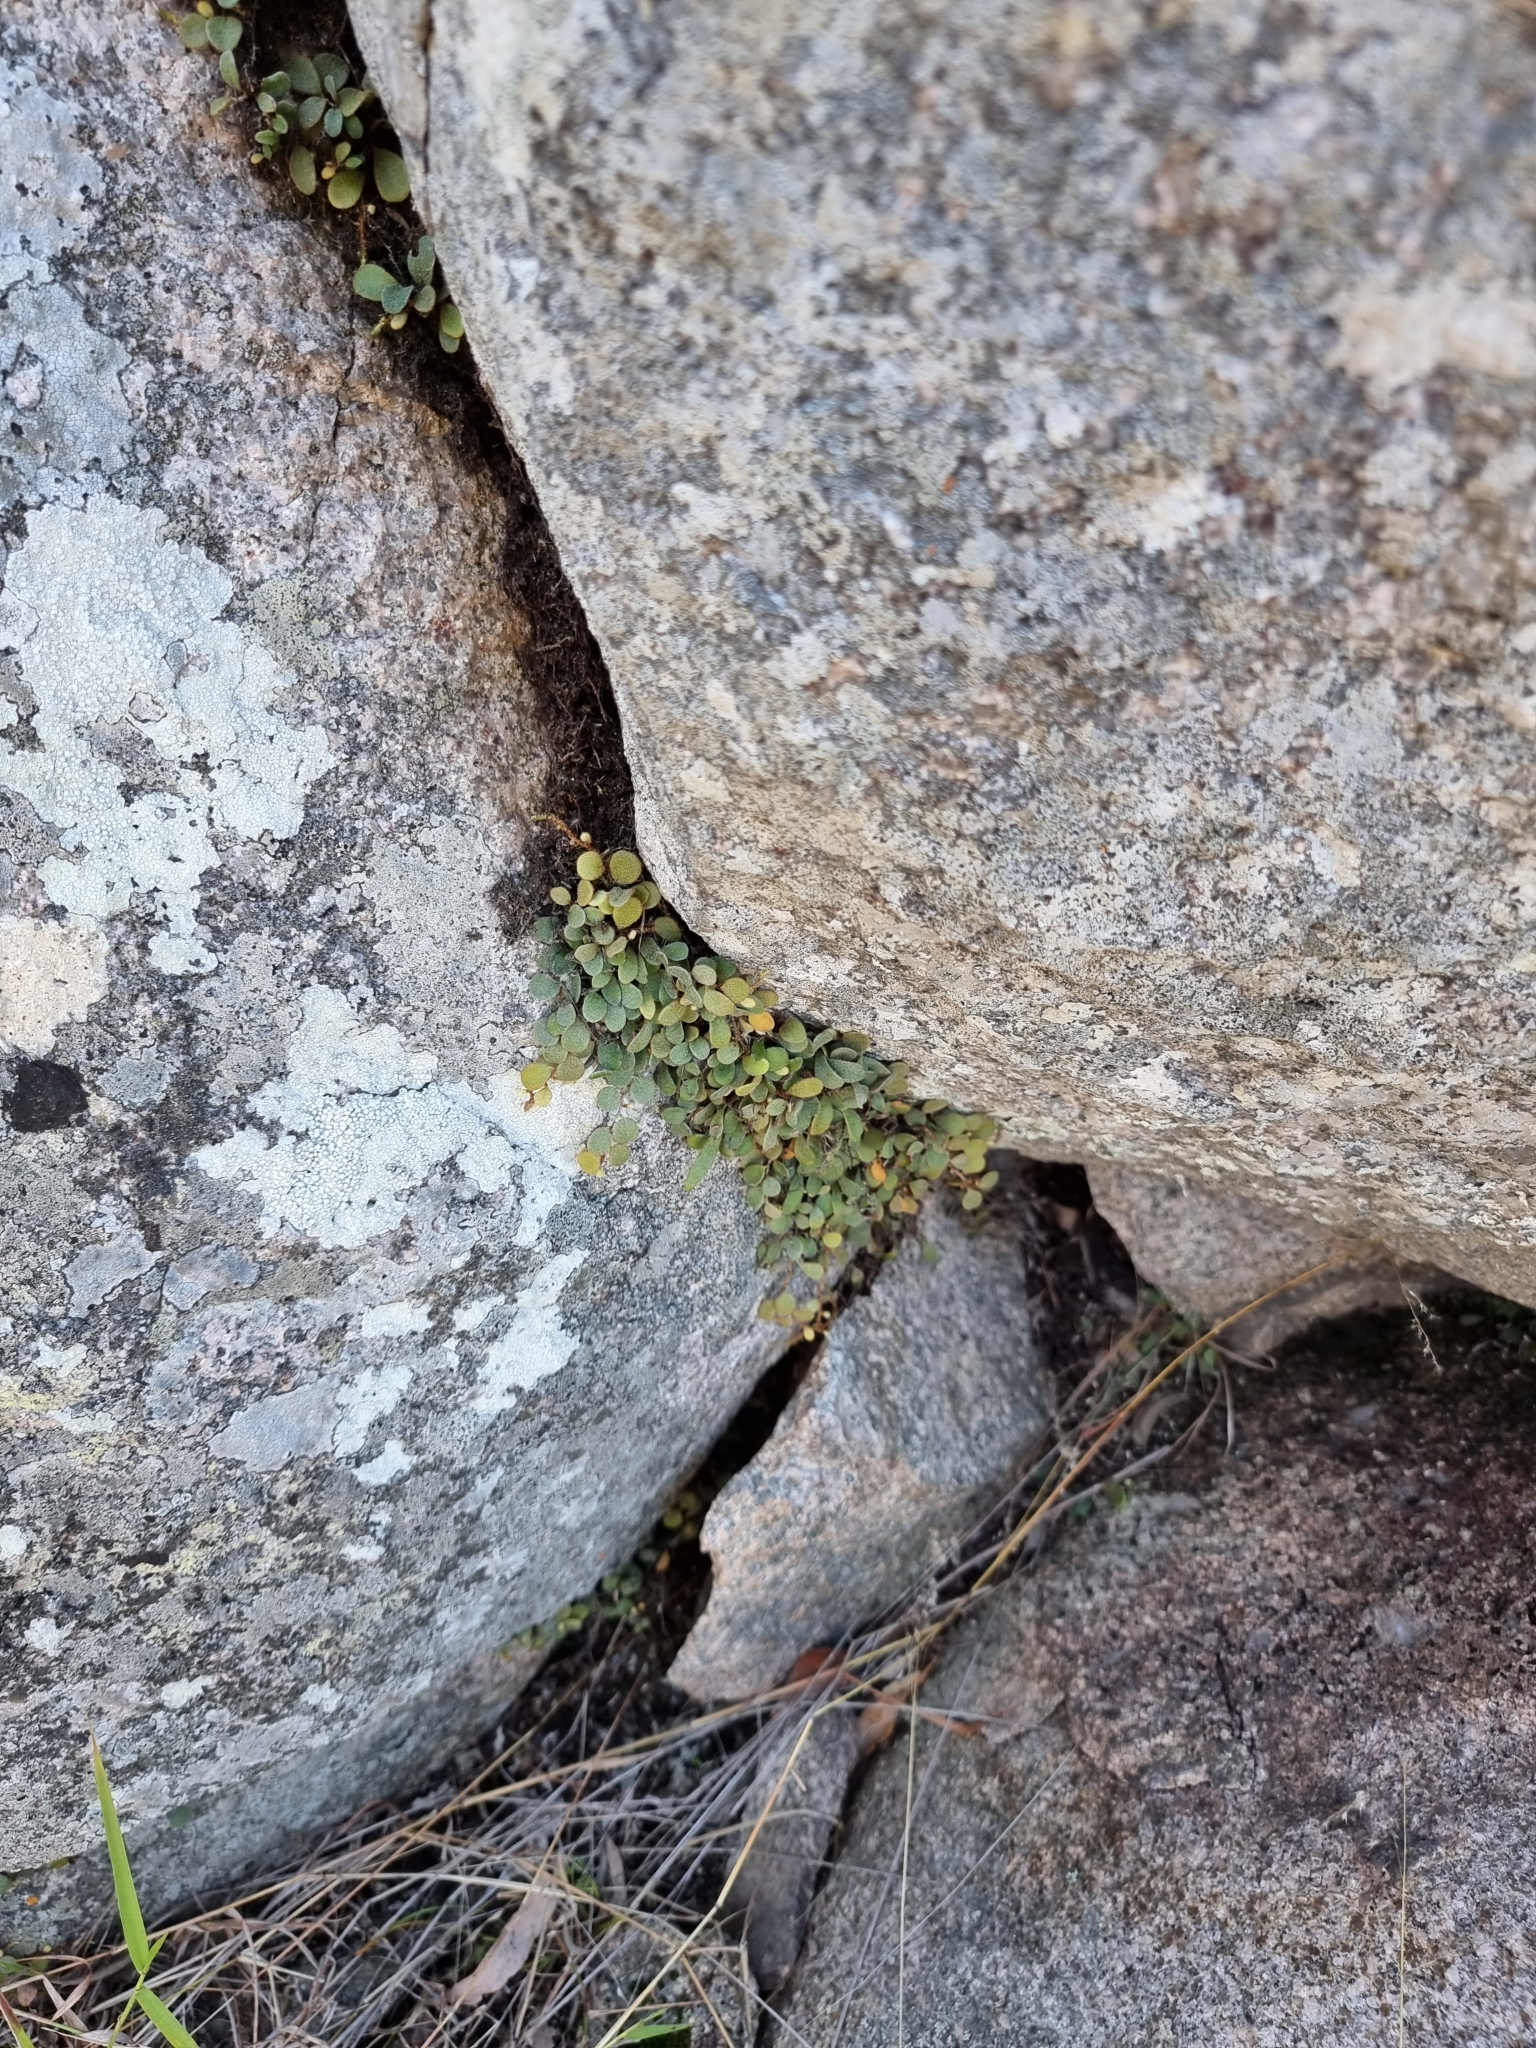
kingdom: Plantae
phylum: Tracheophyta
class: Polypodiopsida
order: Polypodiales
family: Polypodiaceae
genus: Pyrrosia
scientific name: Pyrrosia rupestris
